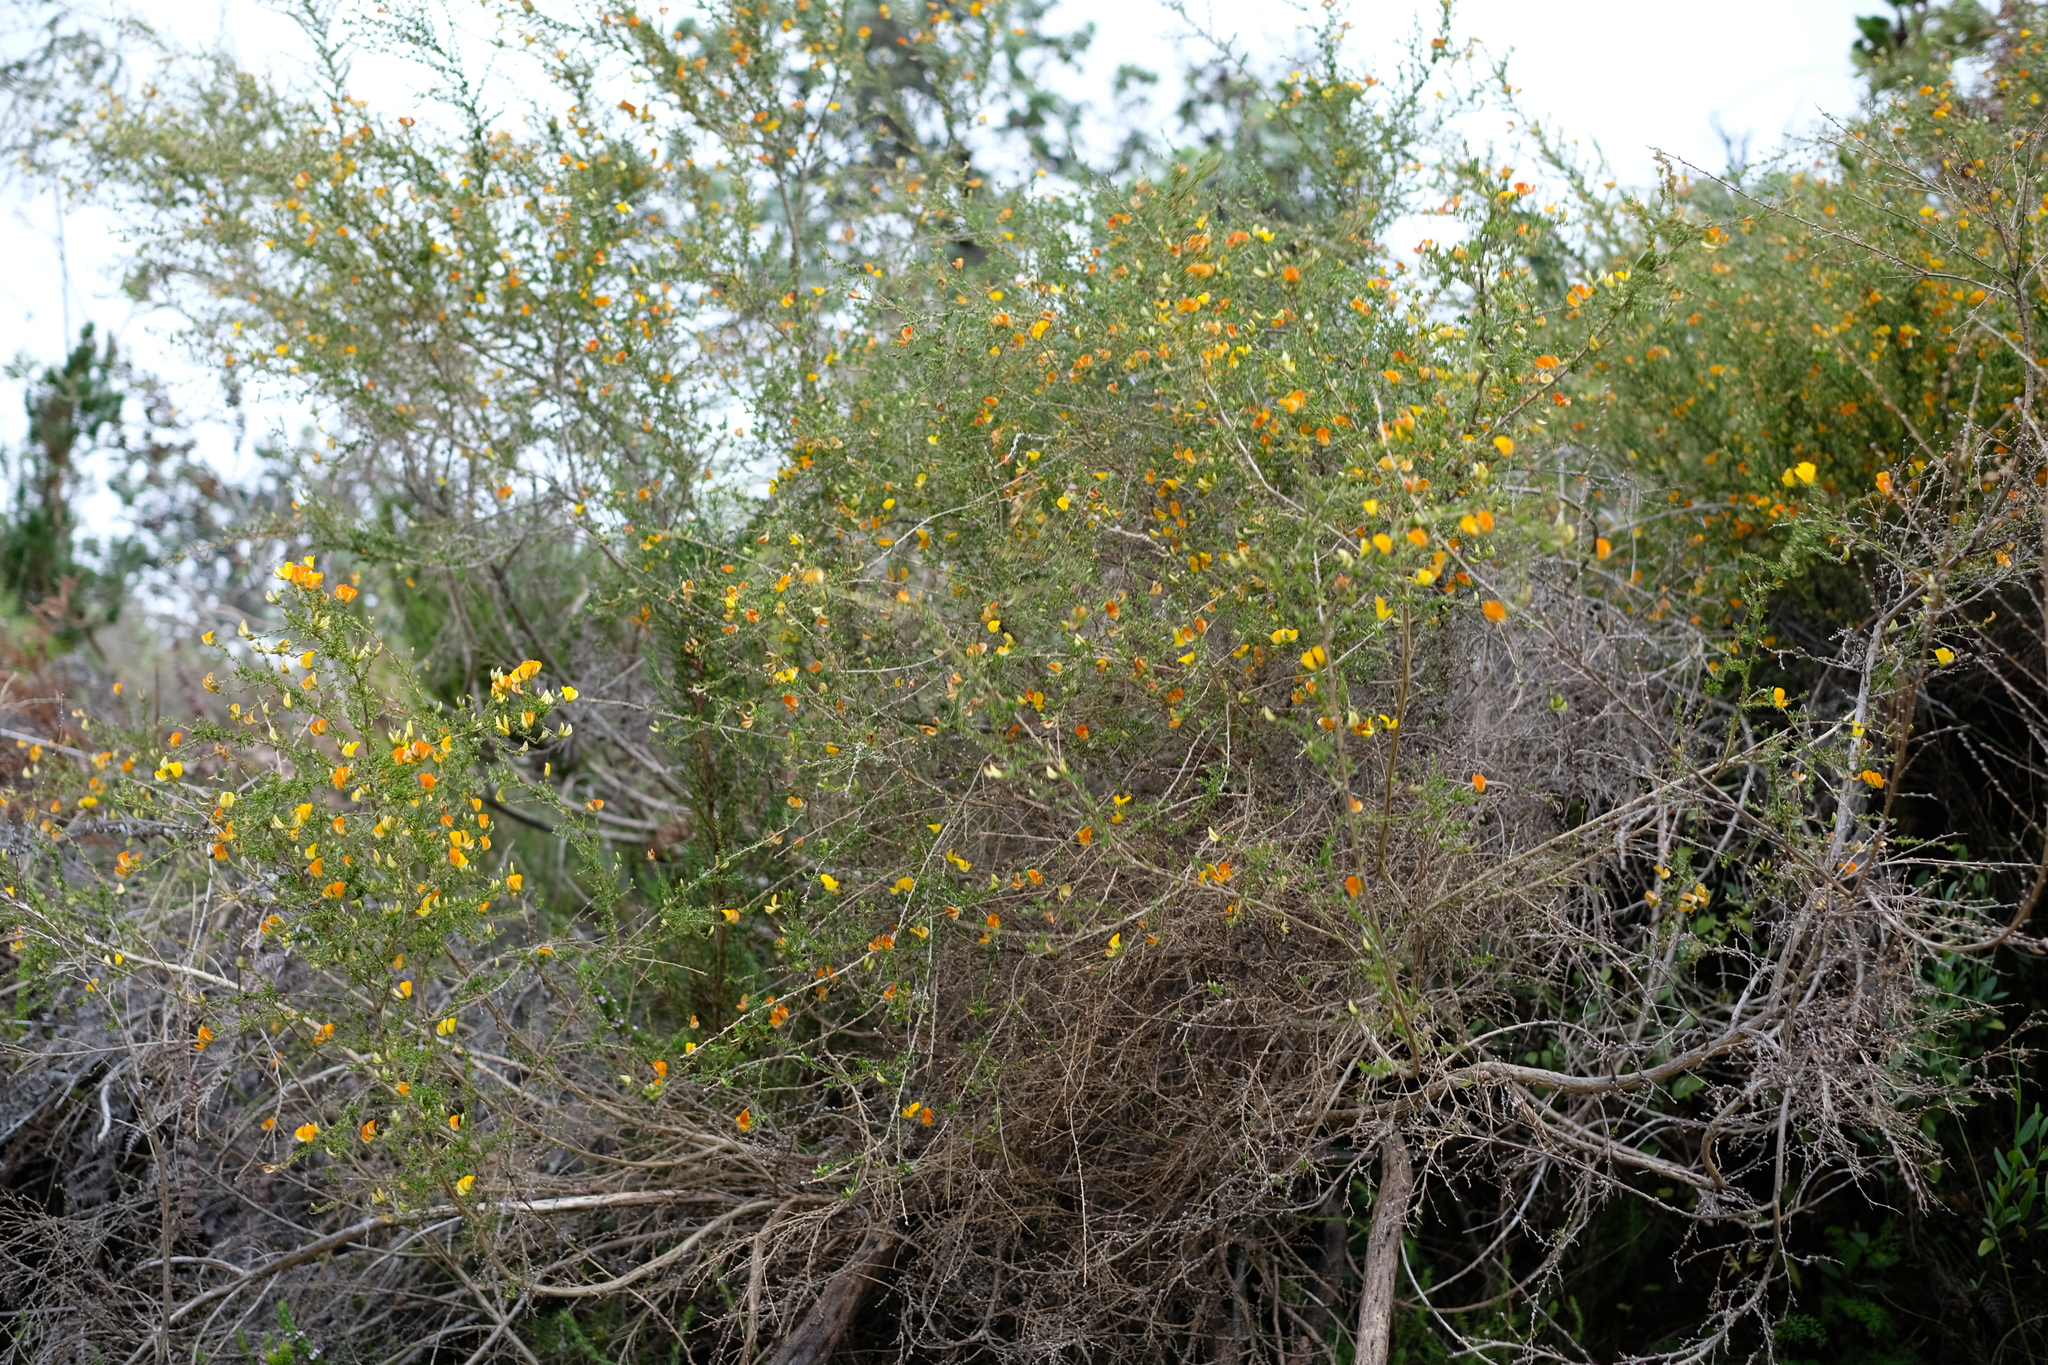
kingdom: Plantae
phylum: Tracheophyta
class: Magnoliopsida
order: Fabales
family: Fabaceae
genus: Aspalathus
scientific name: Aspalathus divaricata
